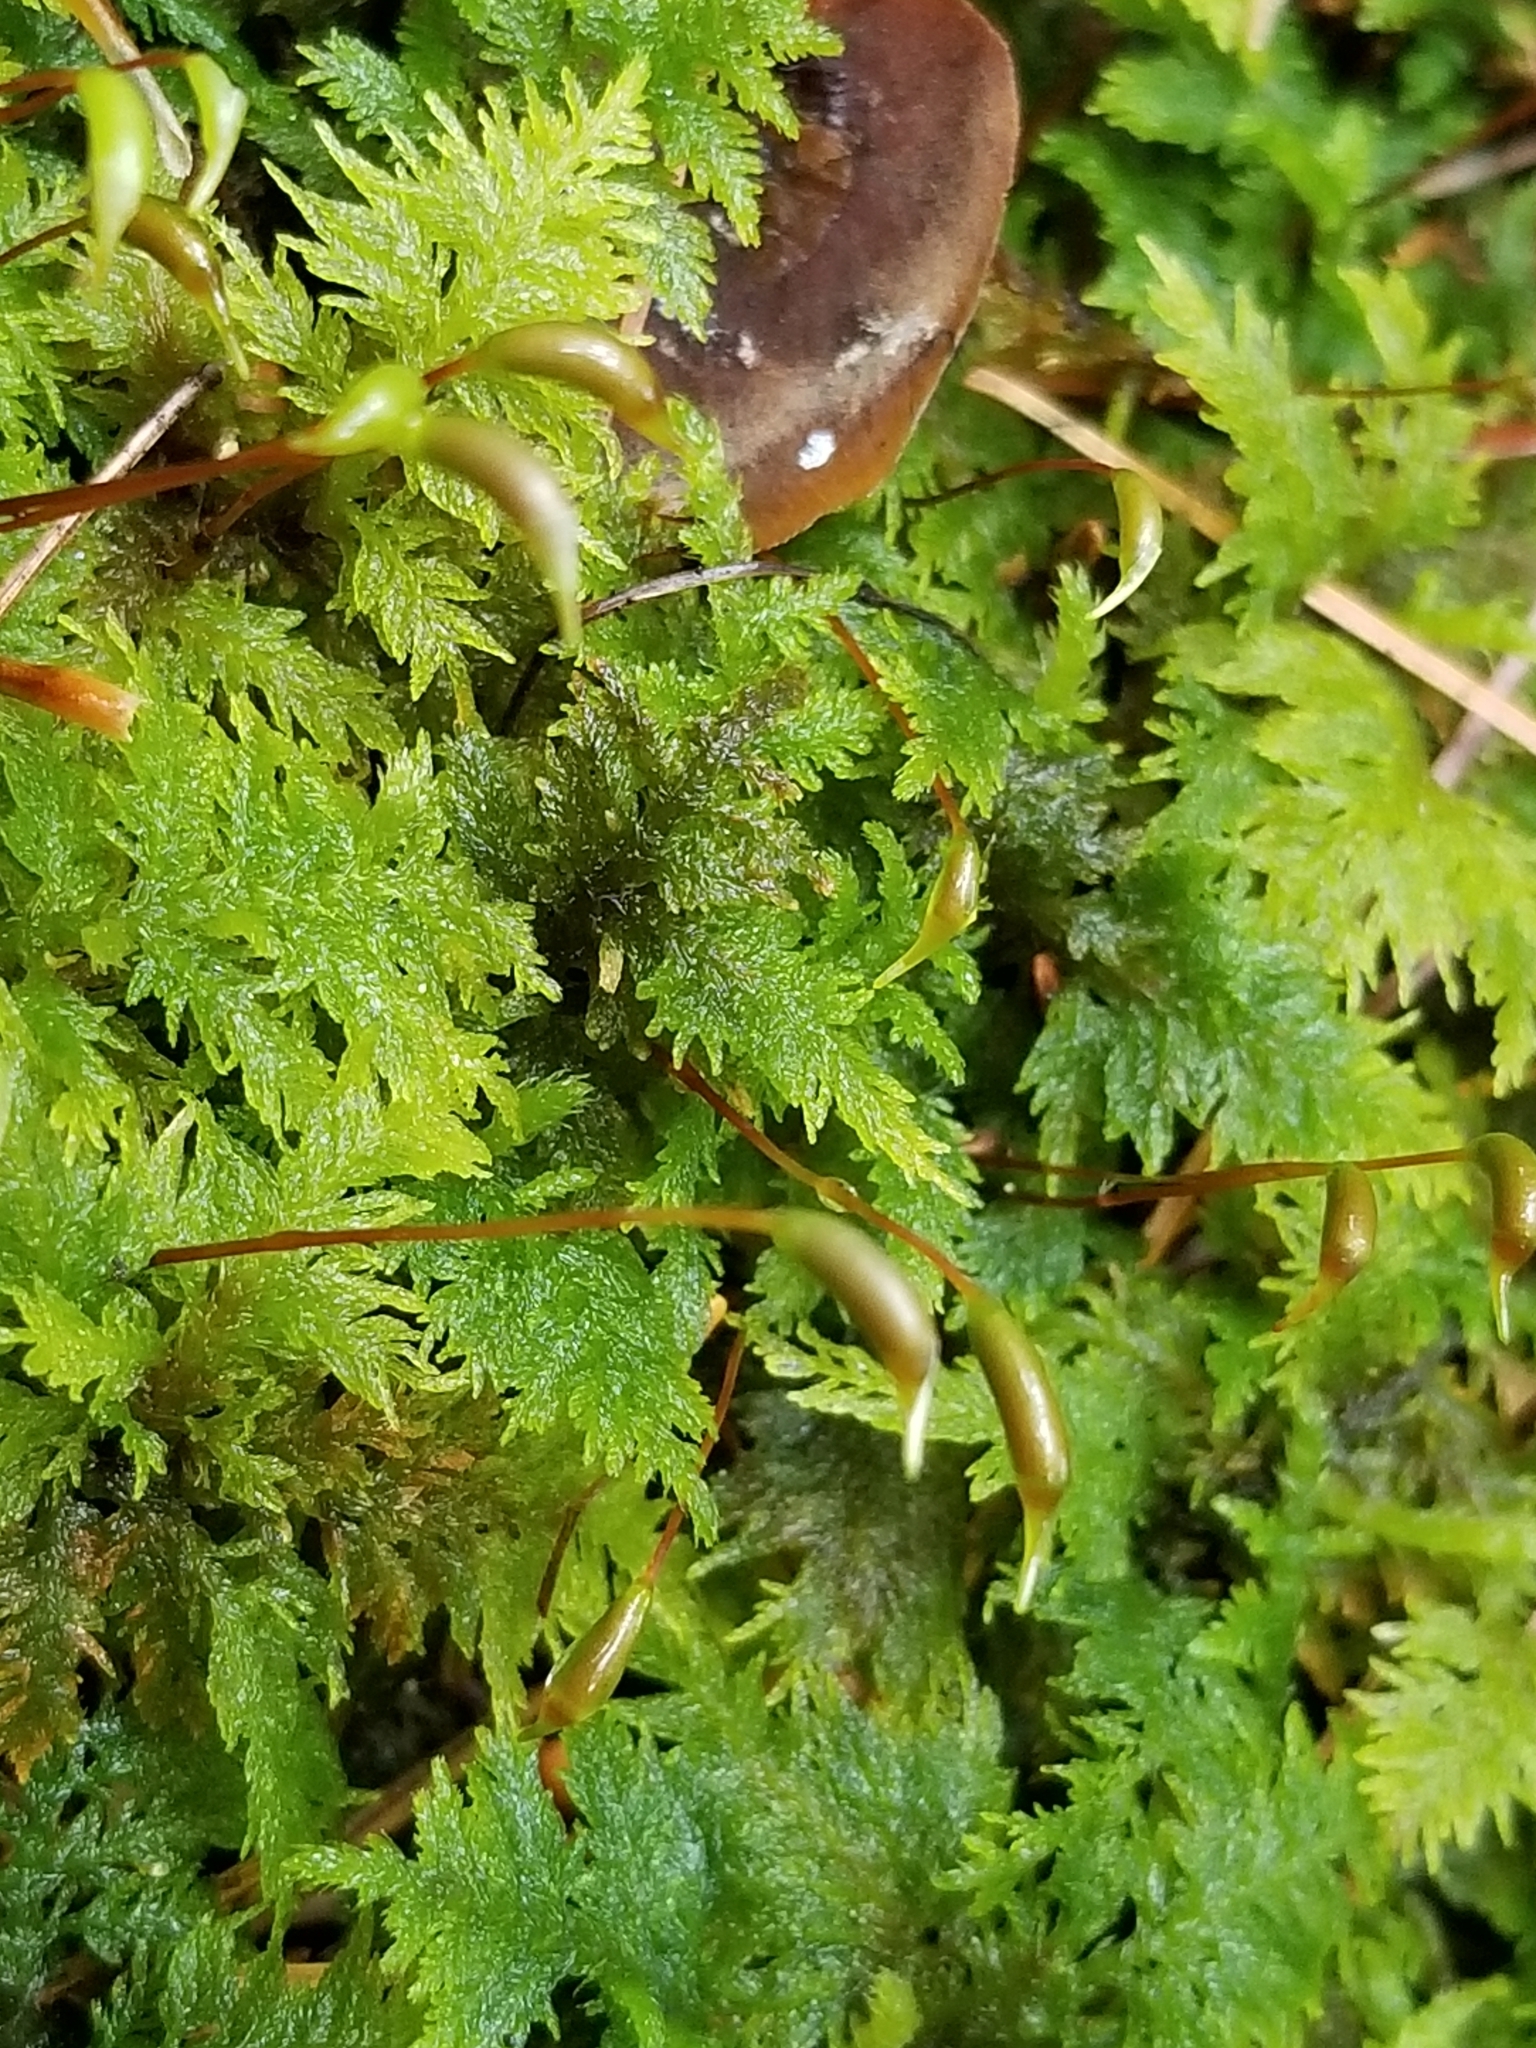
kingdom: Plantae
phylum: Bryophyta
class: Bryopsida
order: Hypnales
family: Thuidiaceae
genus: Thuidium
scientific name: Thuidium delicatulum
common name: Delicate fern moss
